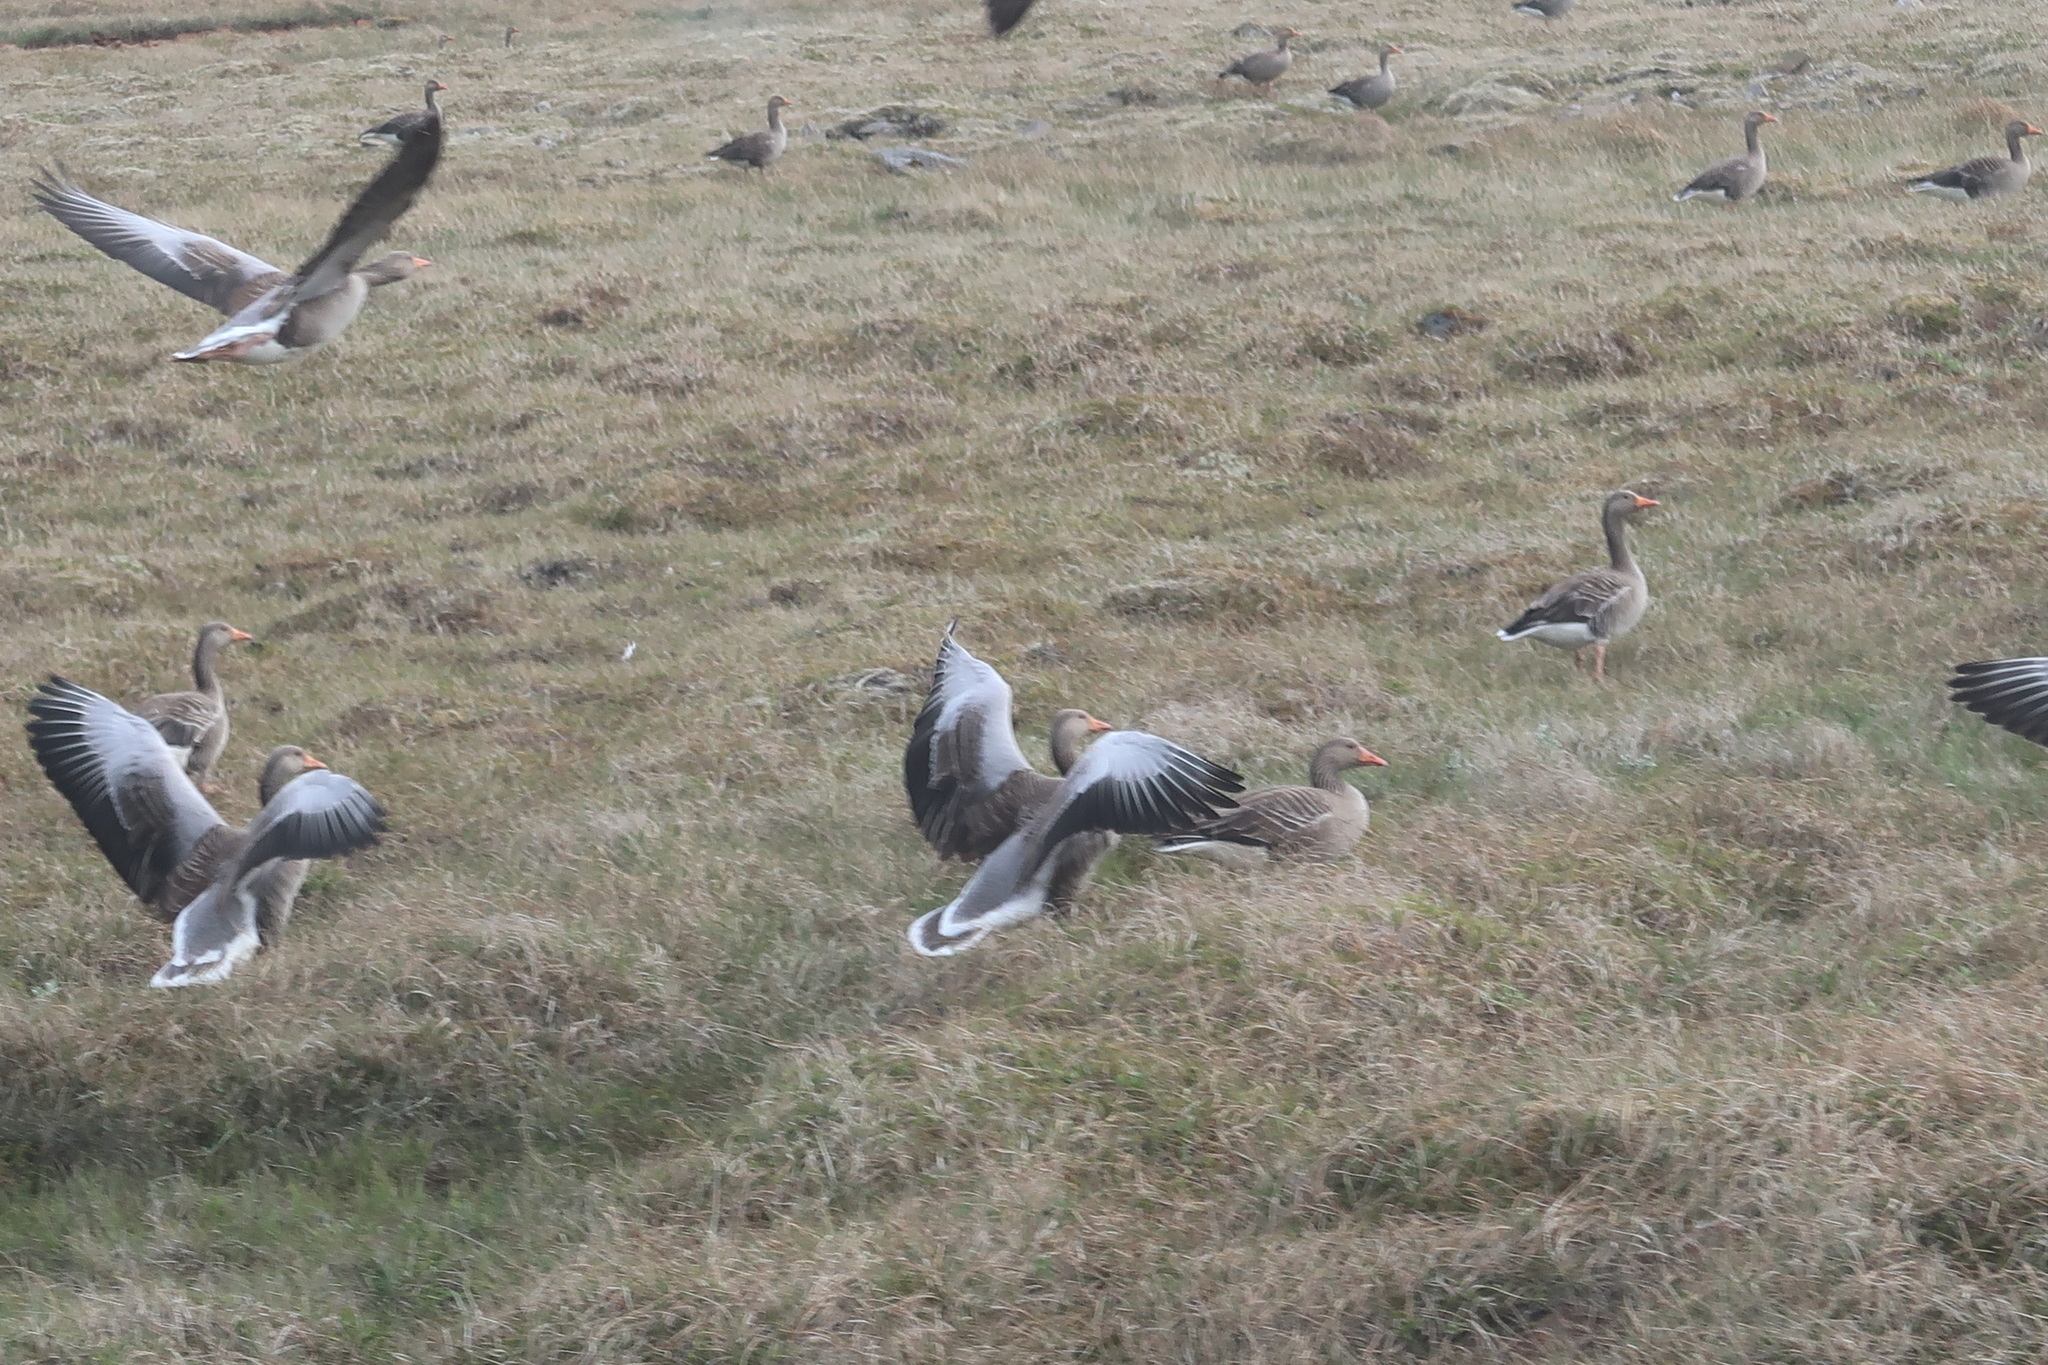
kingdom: Animalia
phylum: Chordata
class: Aves
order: Anseriformes
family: Anatidae
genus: Anser
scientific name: Anser anser
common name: Greylag goose
